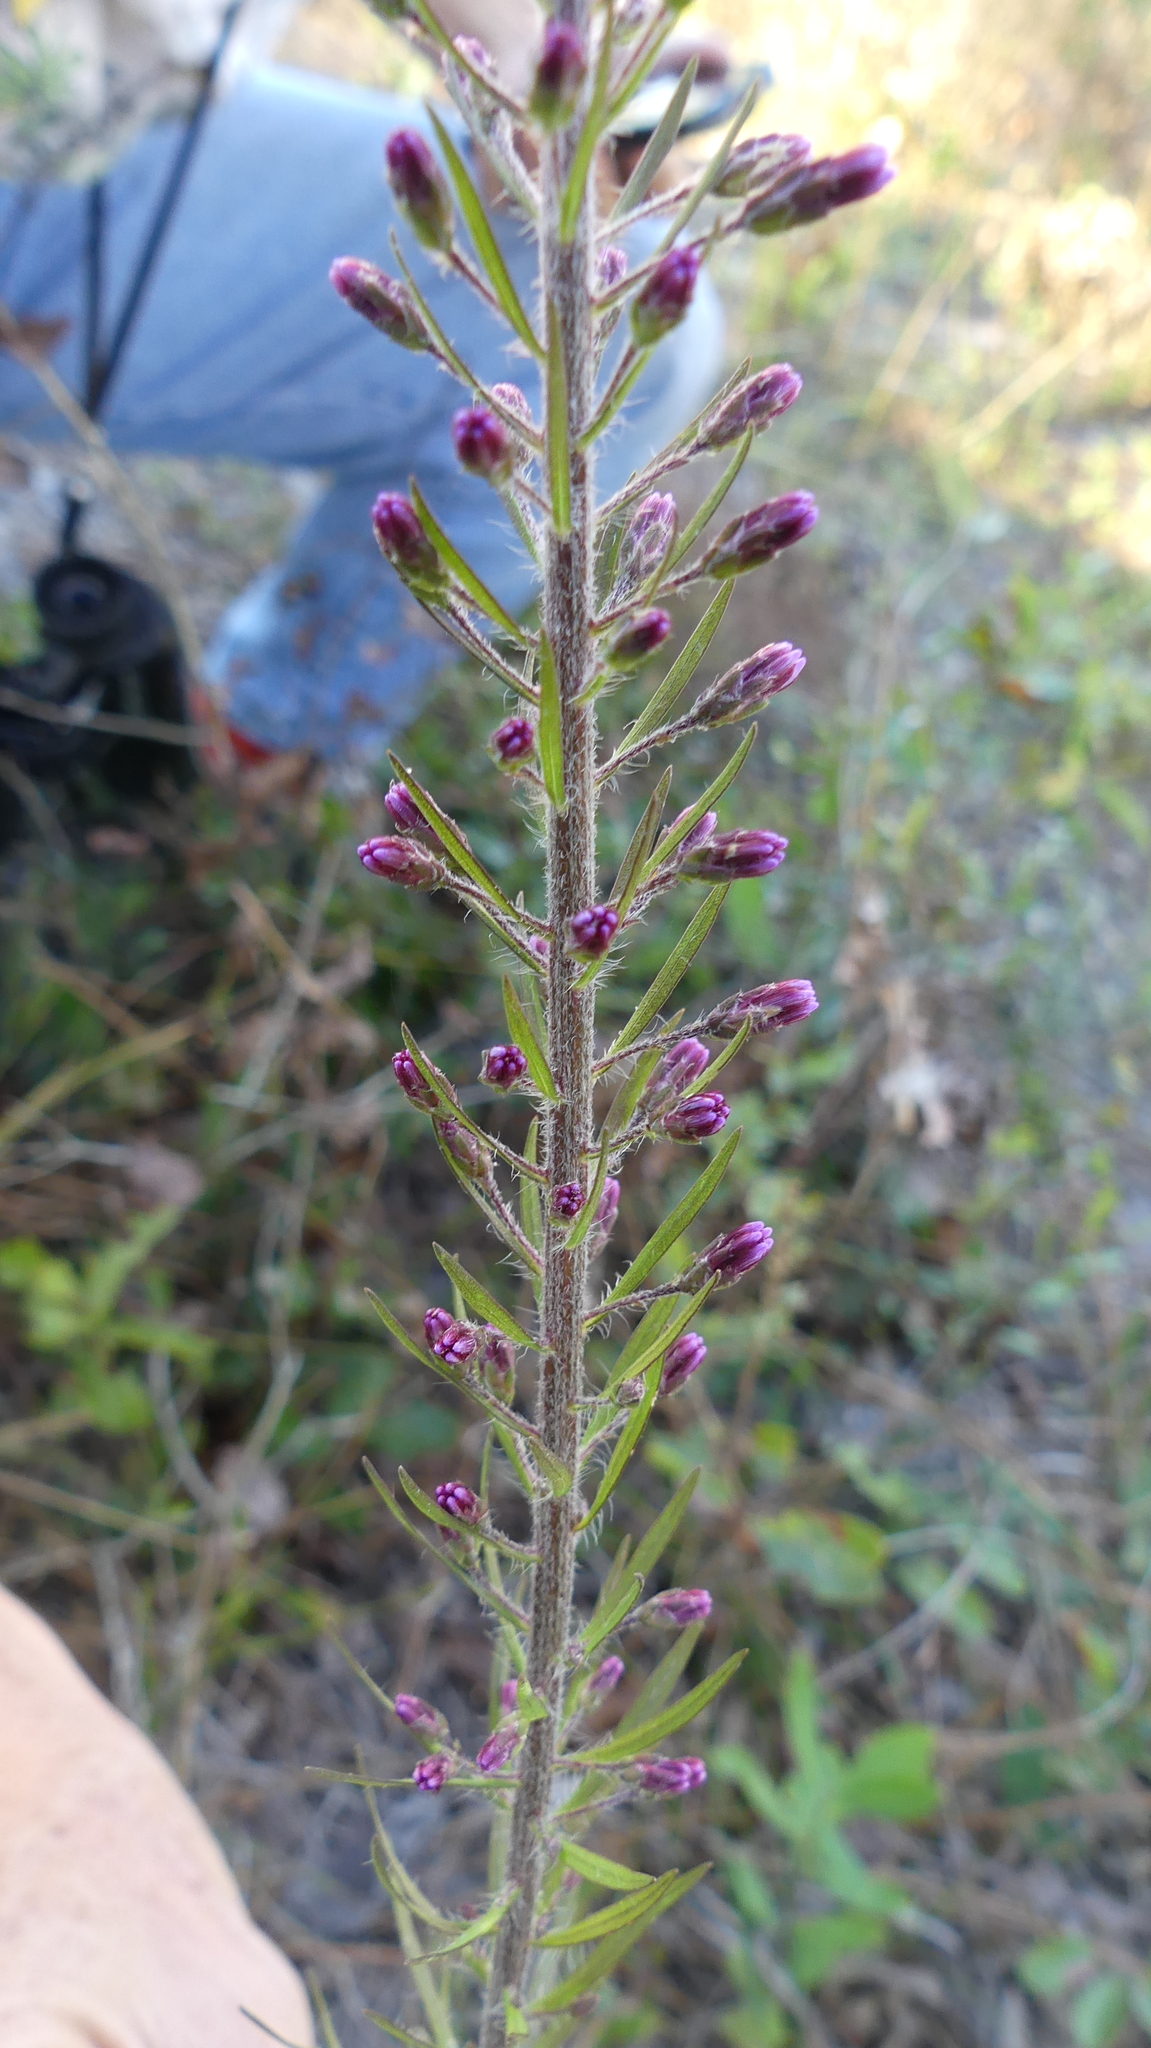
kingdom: Plantae
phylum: Tracheophyta
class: Magnoliopsida
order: Asterales
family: Asteraceae
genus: Liatris
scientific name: Liatris gracilis
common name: Slender gayfeather
